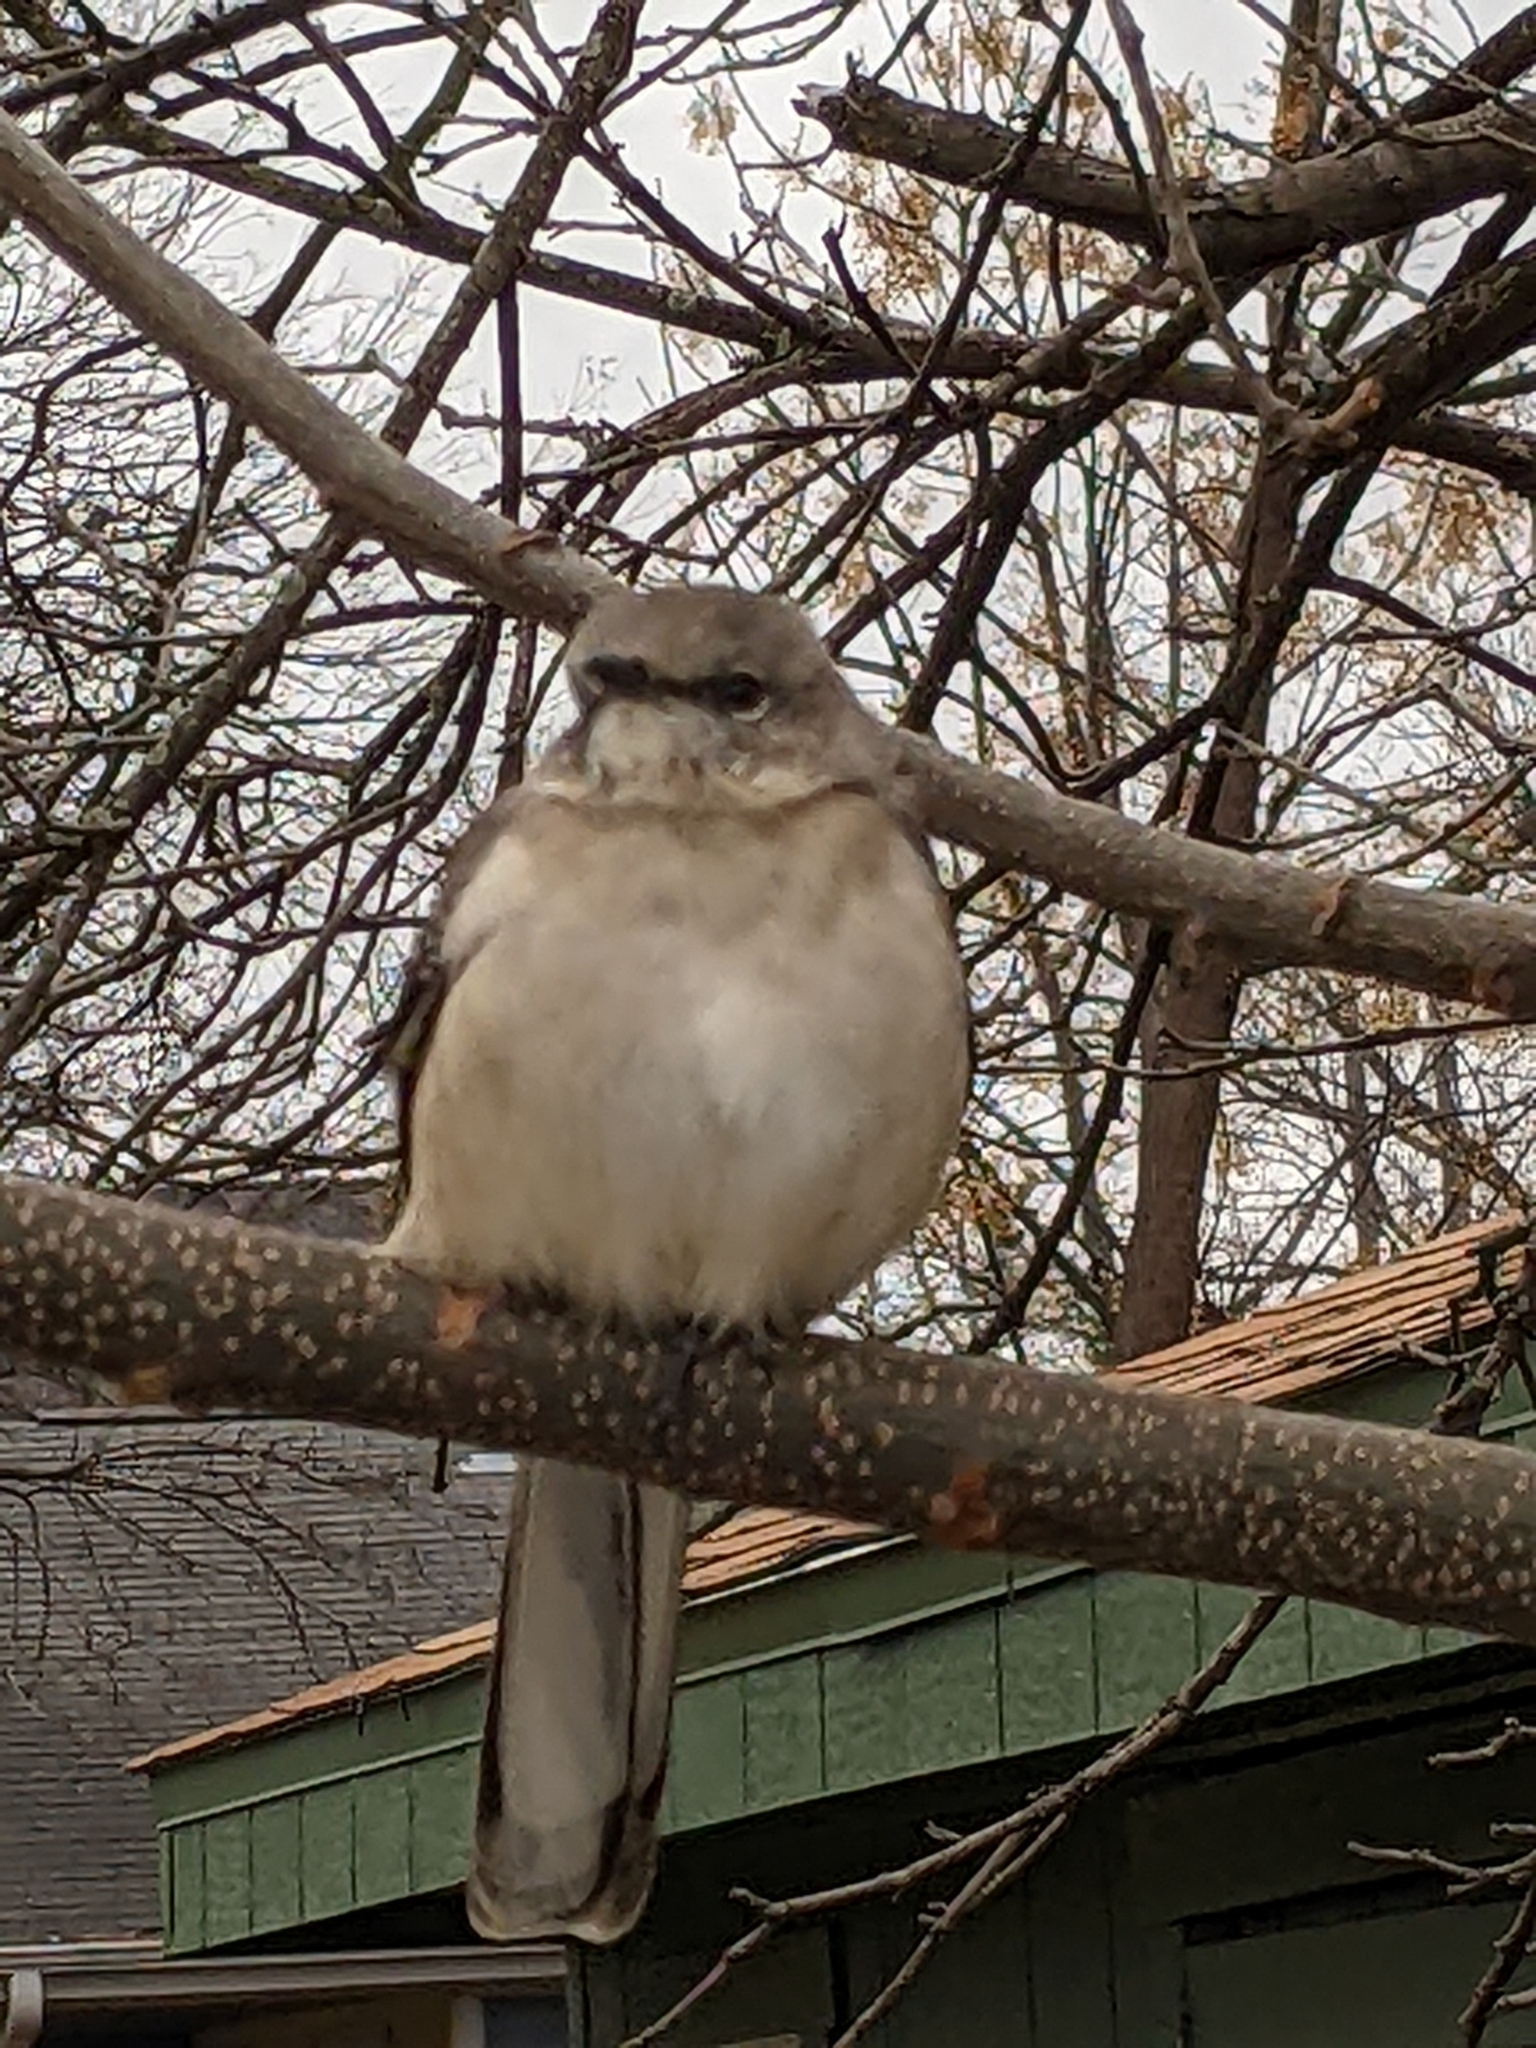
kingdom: Animalia
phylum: Chordata
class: Aves
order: Passeriformes
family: Mimidae
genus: Mimus
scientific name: Mimus polyglottos
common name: Northern mockingbird
